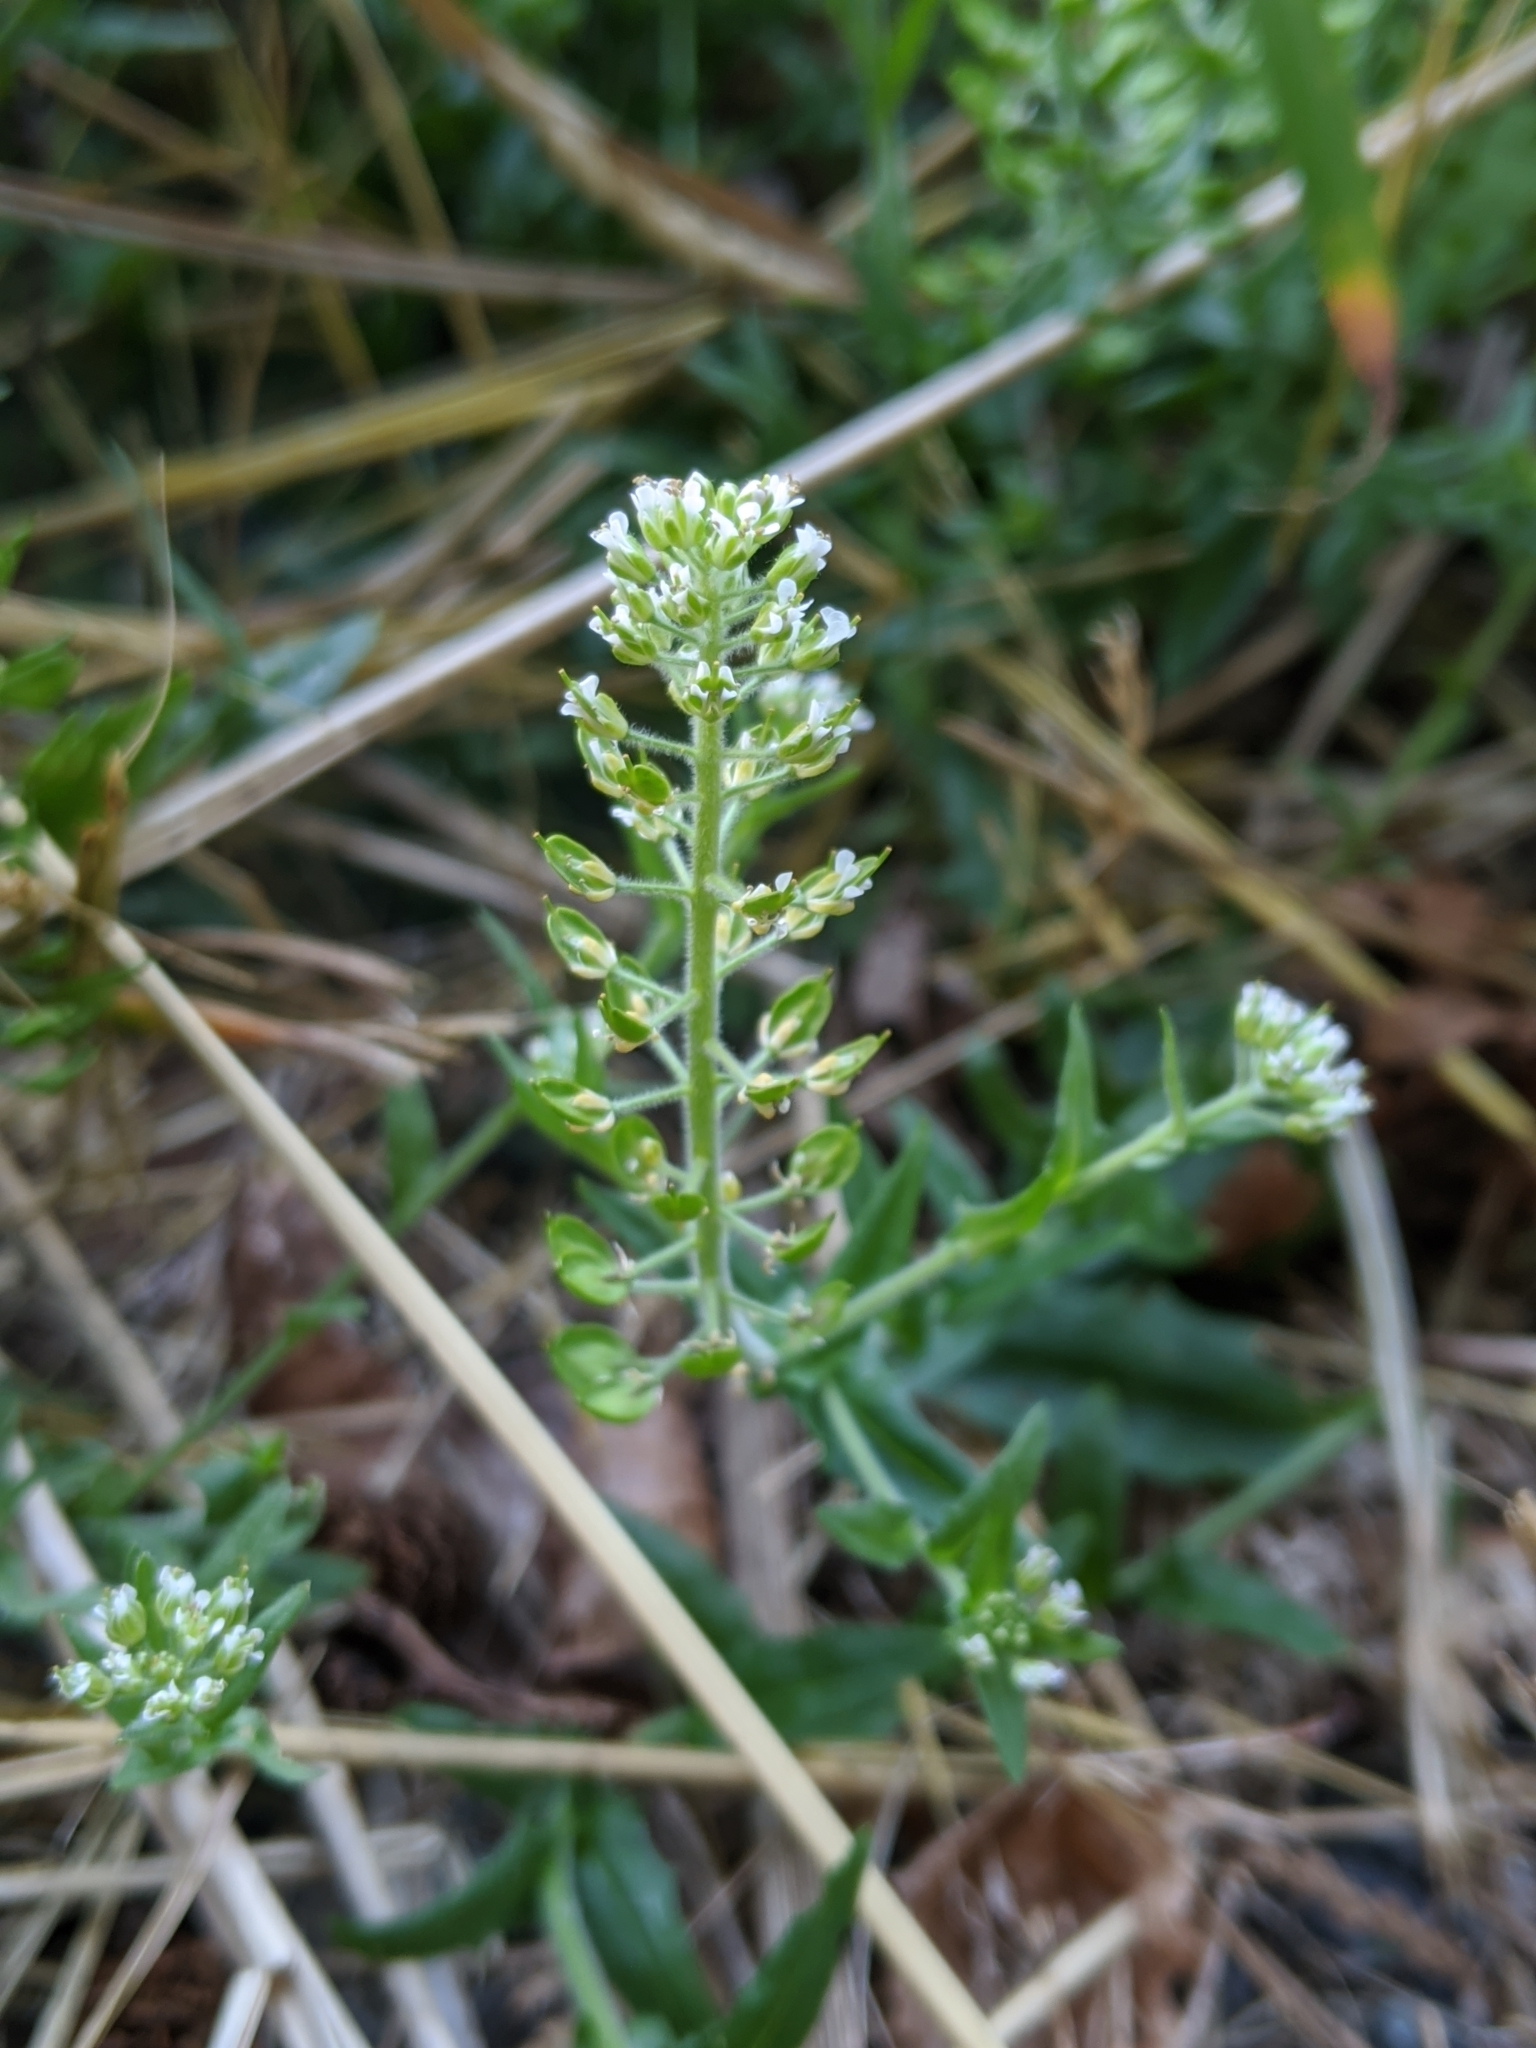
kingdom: Plantae
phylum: Tracheophyta
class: Magnoliopsida
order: Brassicales
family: Brassicaceae
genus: Lepidium
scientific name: Lepidium campestre
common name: Field pepperwort
